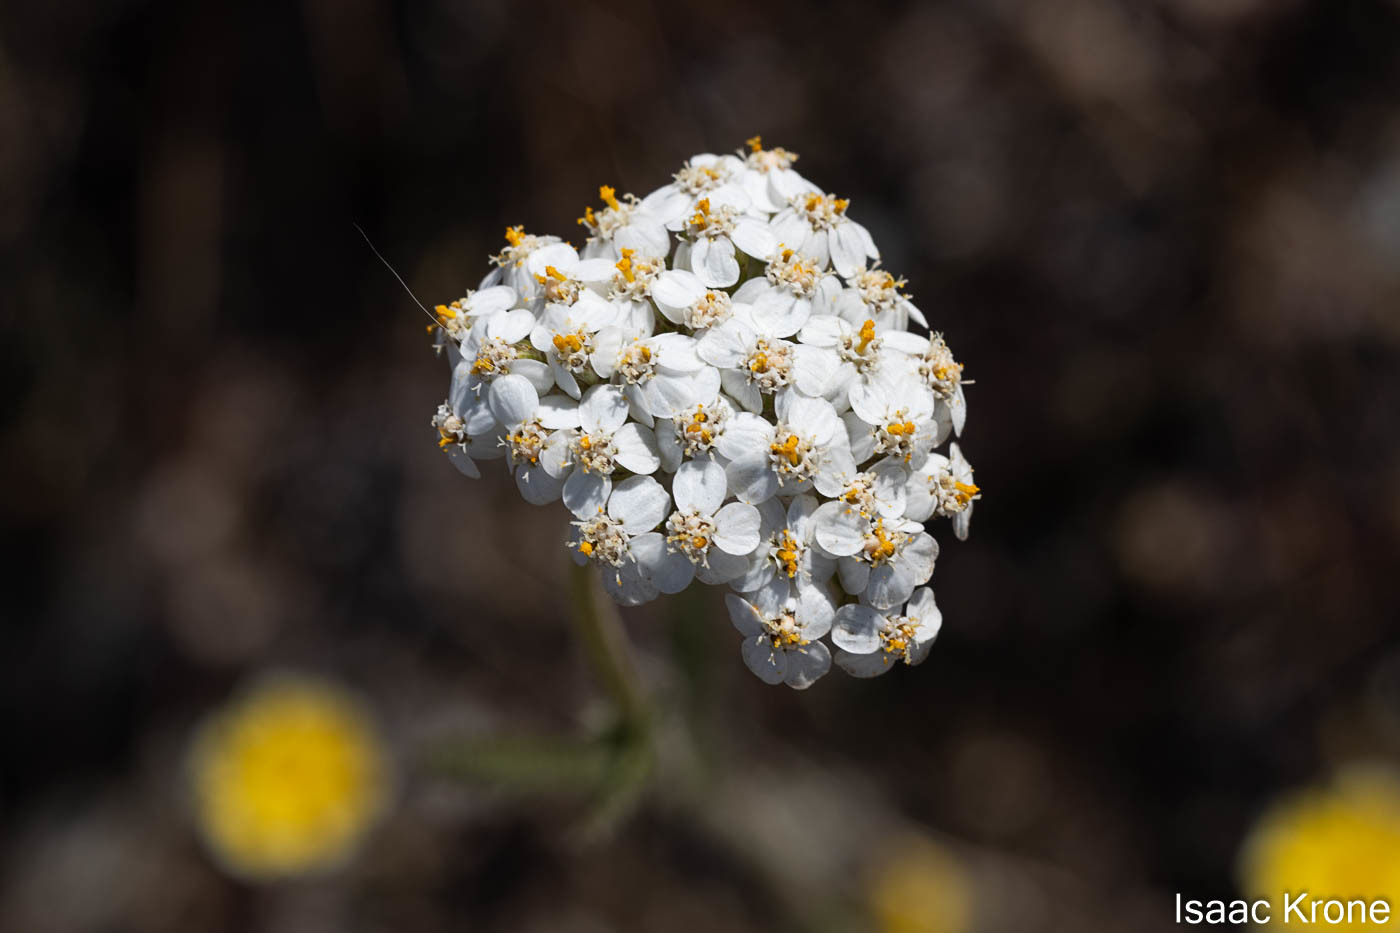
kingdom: Plantae
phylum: Tracheophyta
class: Magnoliopsida
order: Asterales
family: Asteraceae
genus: Achillea
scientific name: Achillea millefolium
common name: Yarrow
